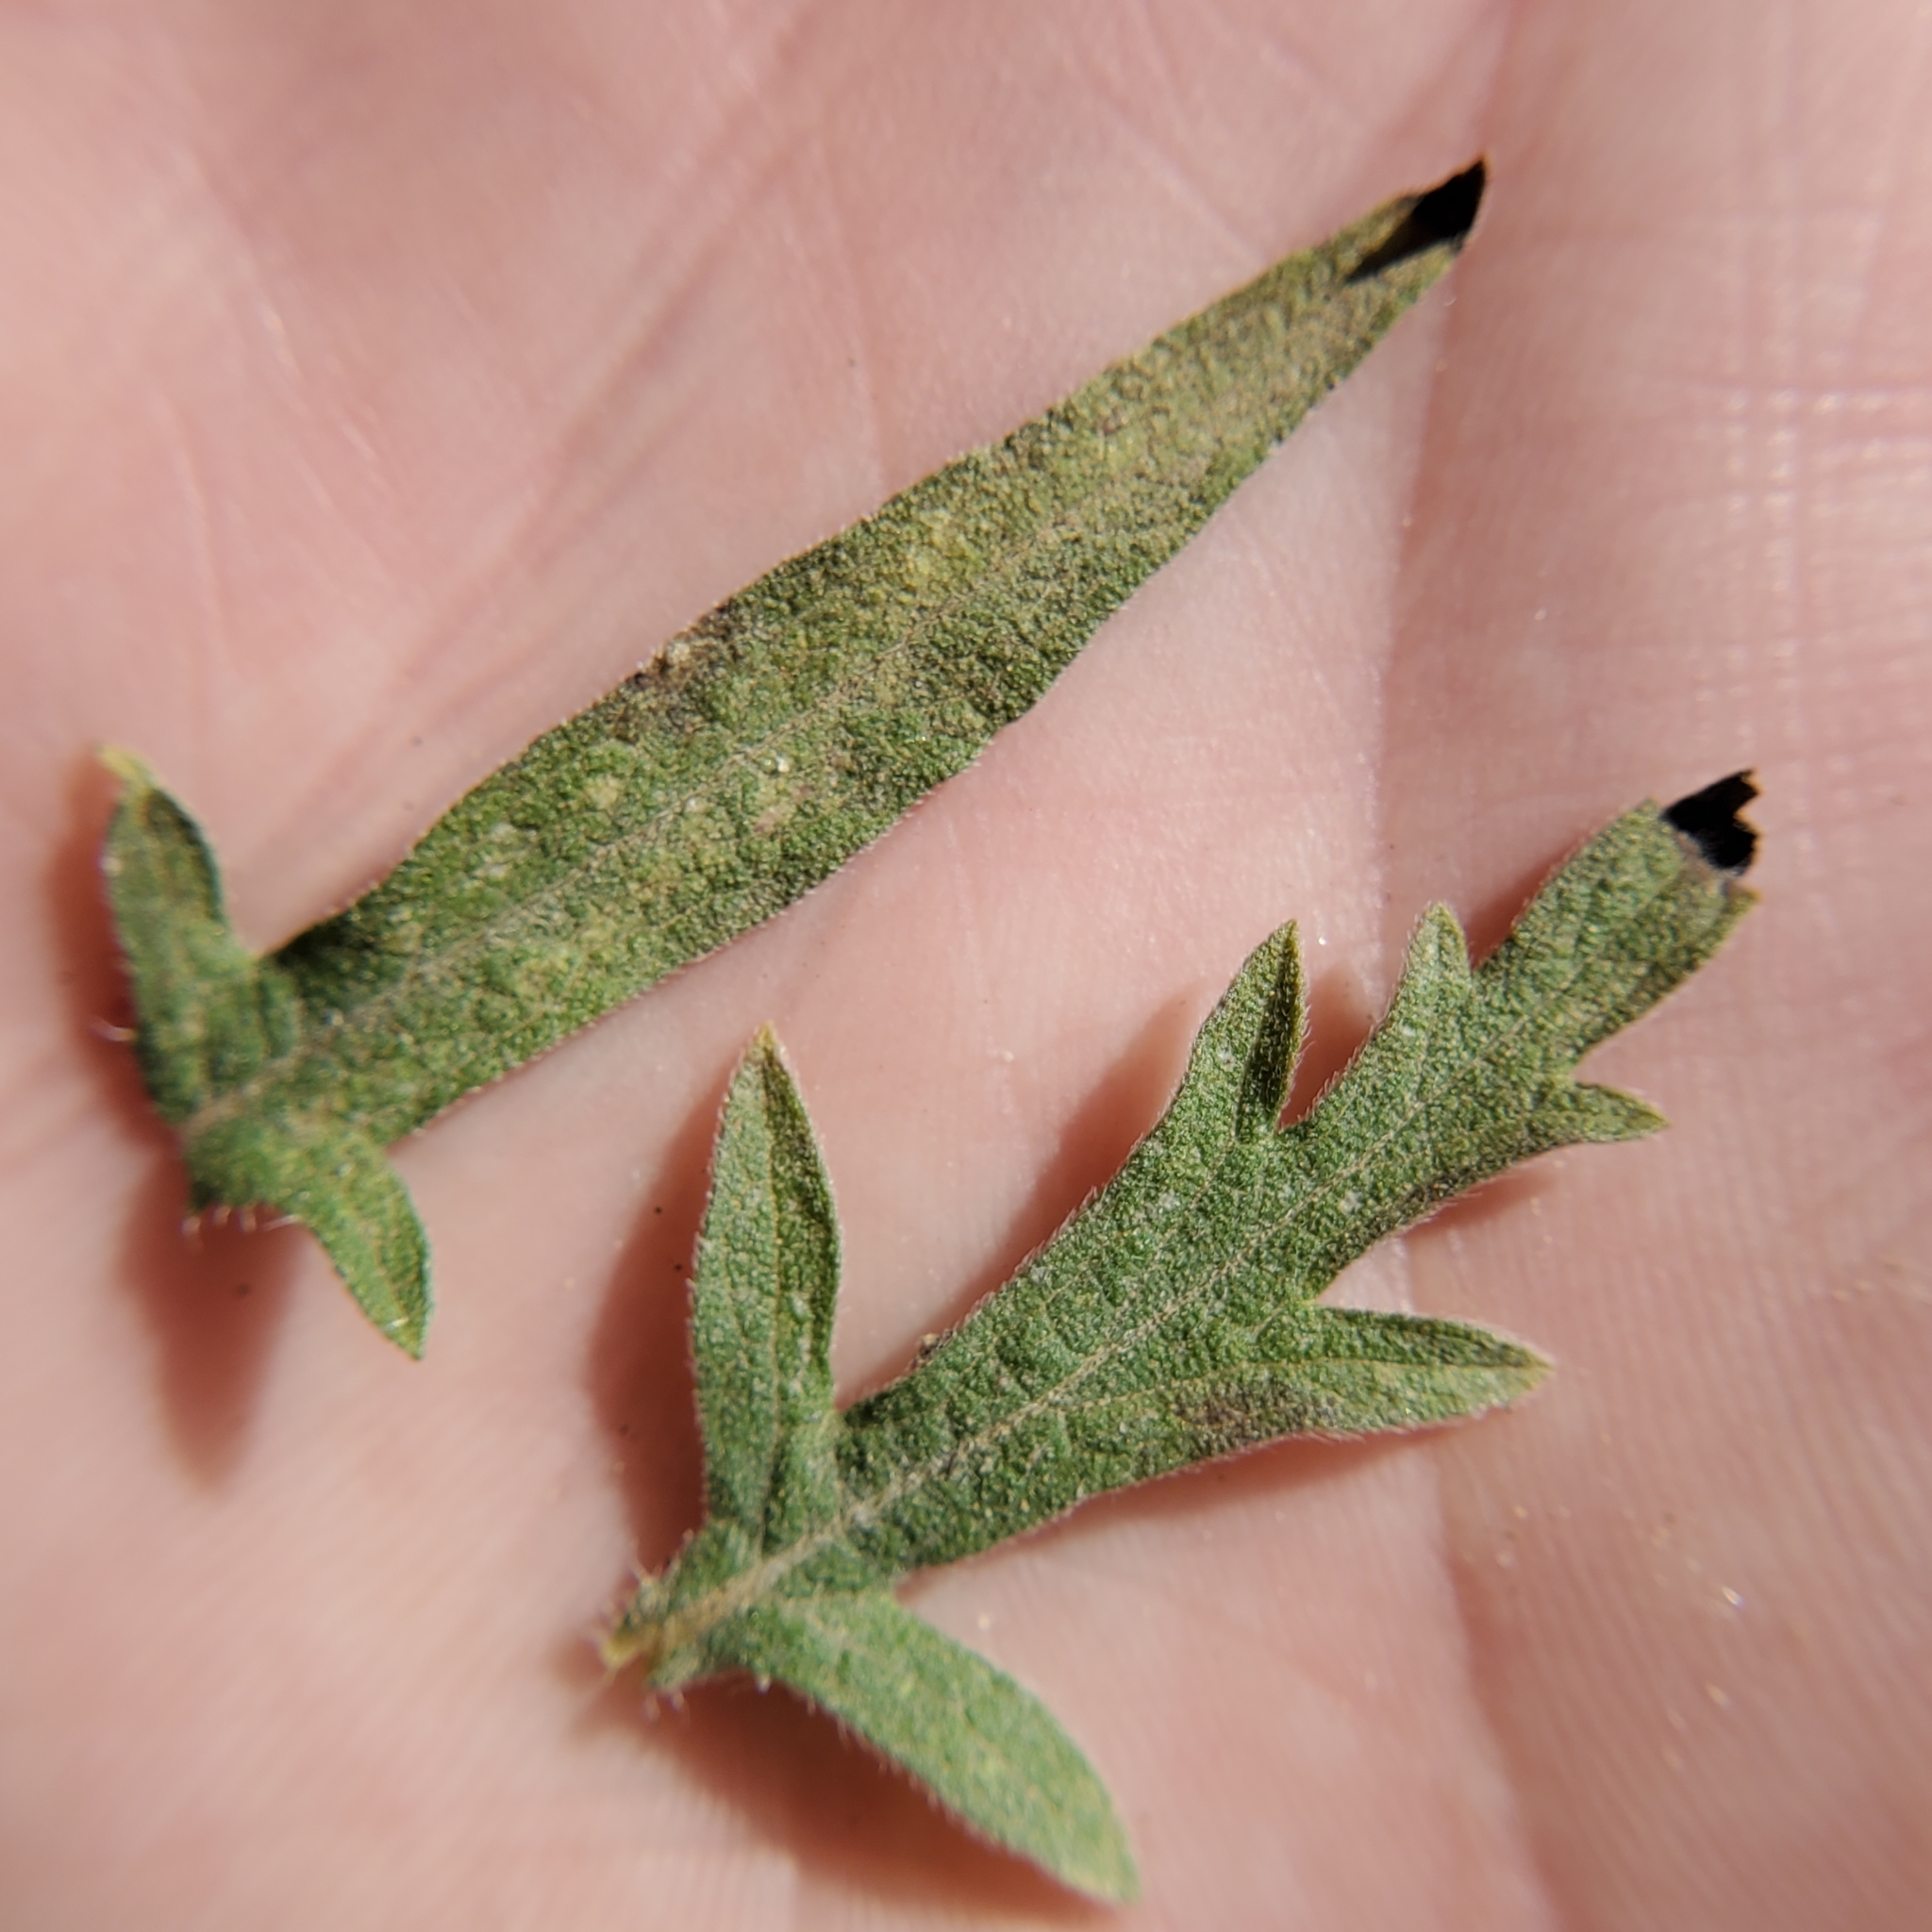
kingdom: Plantae
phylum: Tracheophyta
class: Magnoliopsida
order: Asterales
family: Asteraceae
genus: Ambrosia
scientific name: Ambrosia psilostachya
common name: Perennial ragweed
